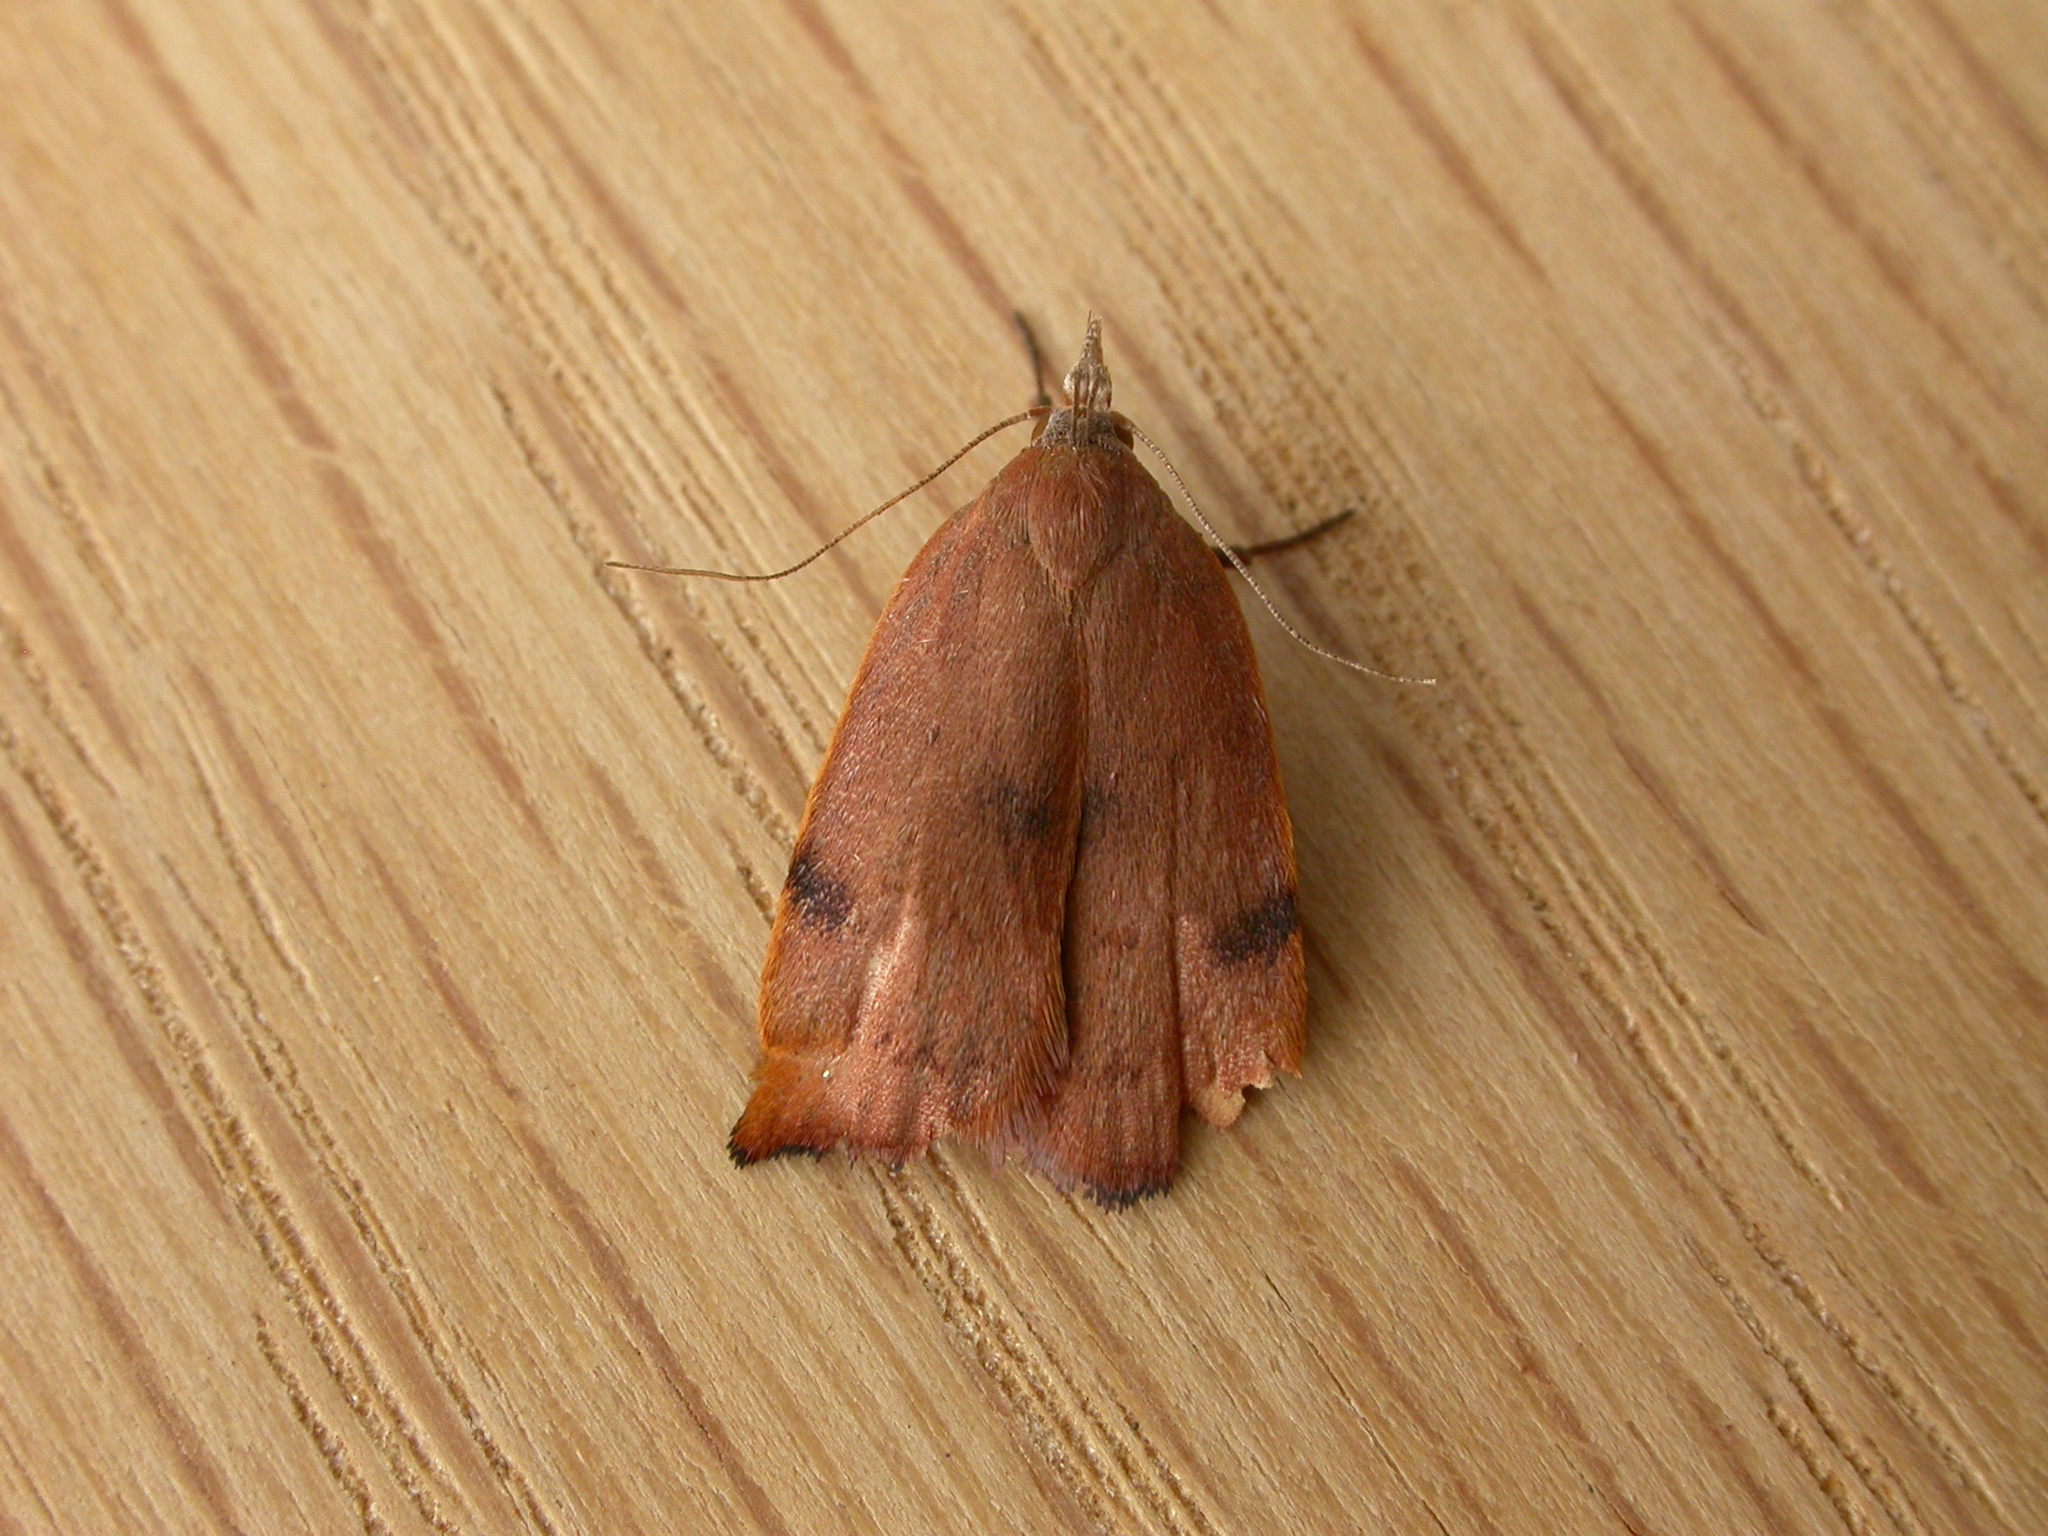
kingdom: Animalia
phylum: Arthropoda
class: Insecta
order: Lepidoptera
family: Oecophoridae
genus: Tortricopsis
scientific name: Tortricopsis uncinella
